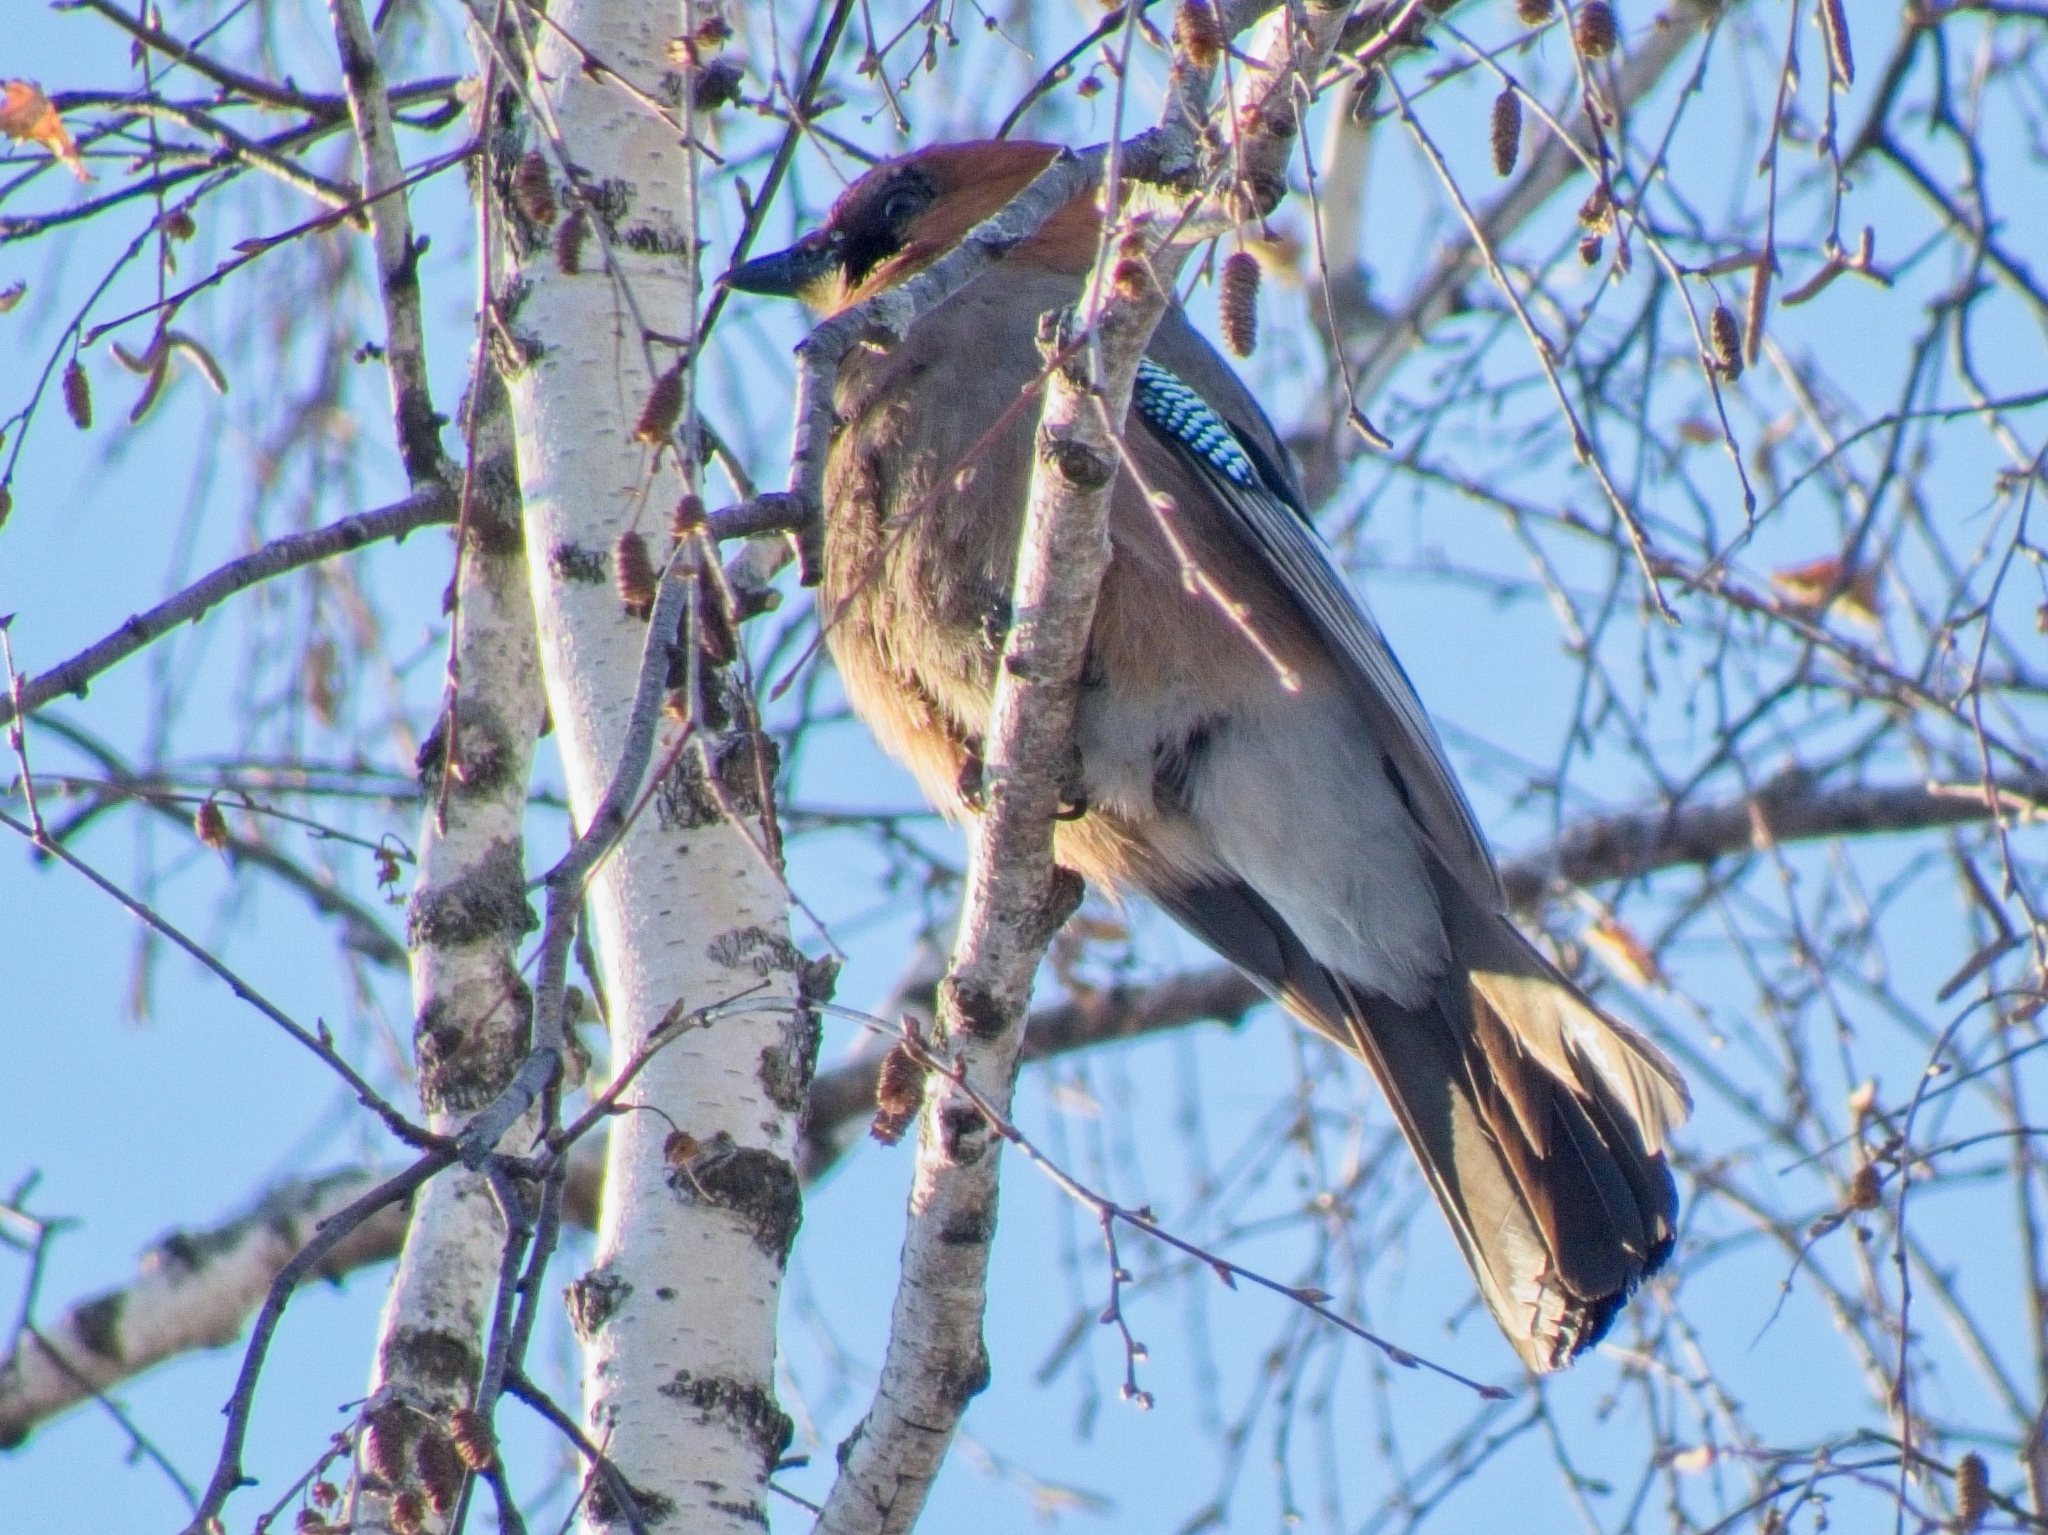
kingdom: Animalia
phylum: Chordata
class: Aves
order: Passeriformes
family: Corvidae
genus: Garrulus
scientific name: Garrulus glandarius
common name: Eurasian jay
